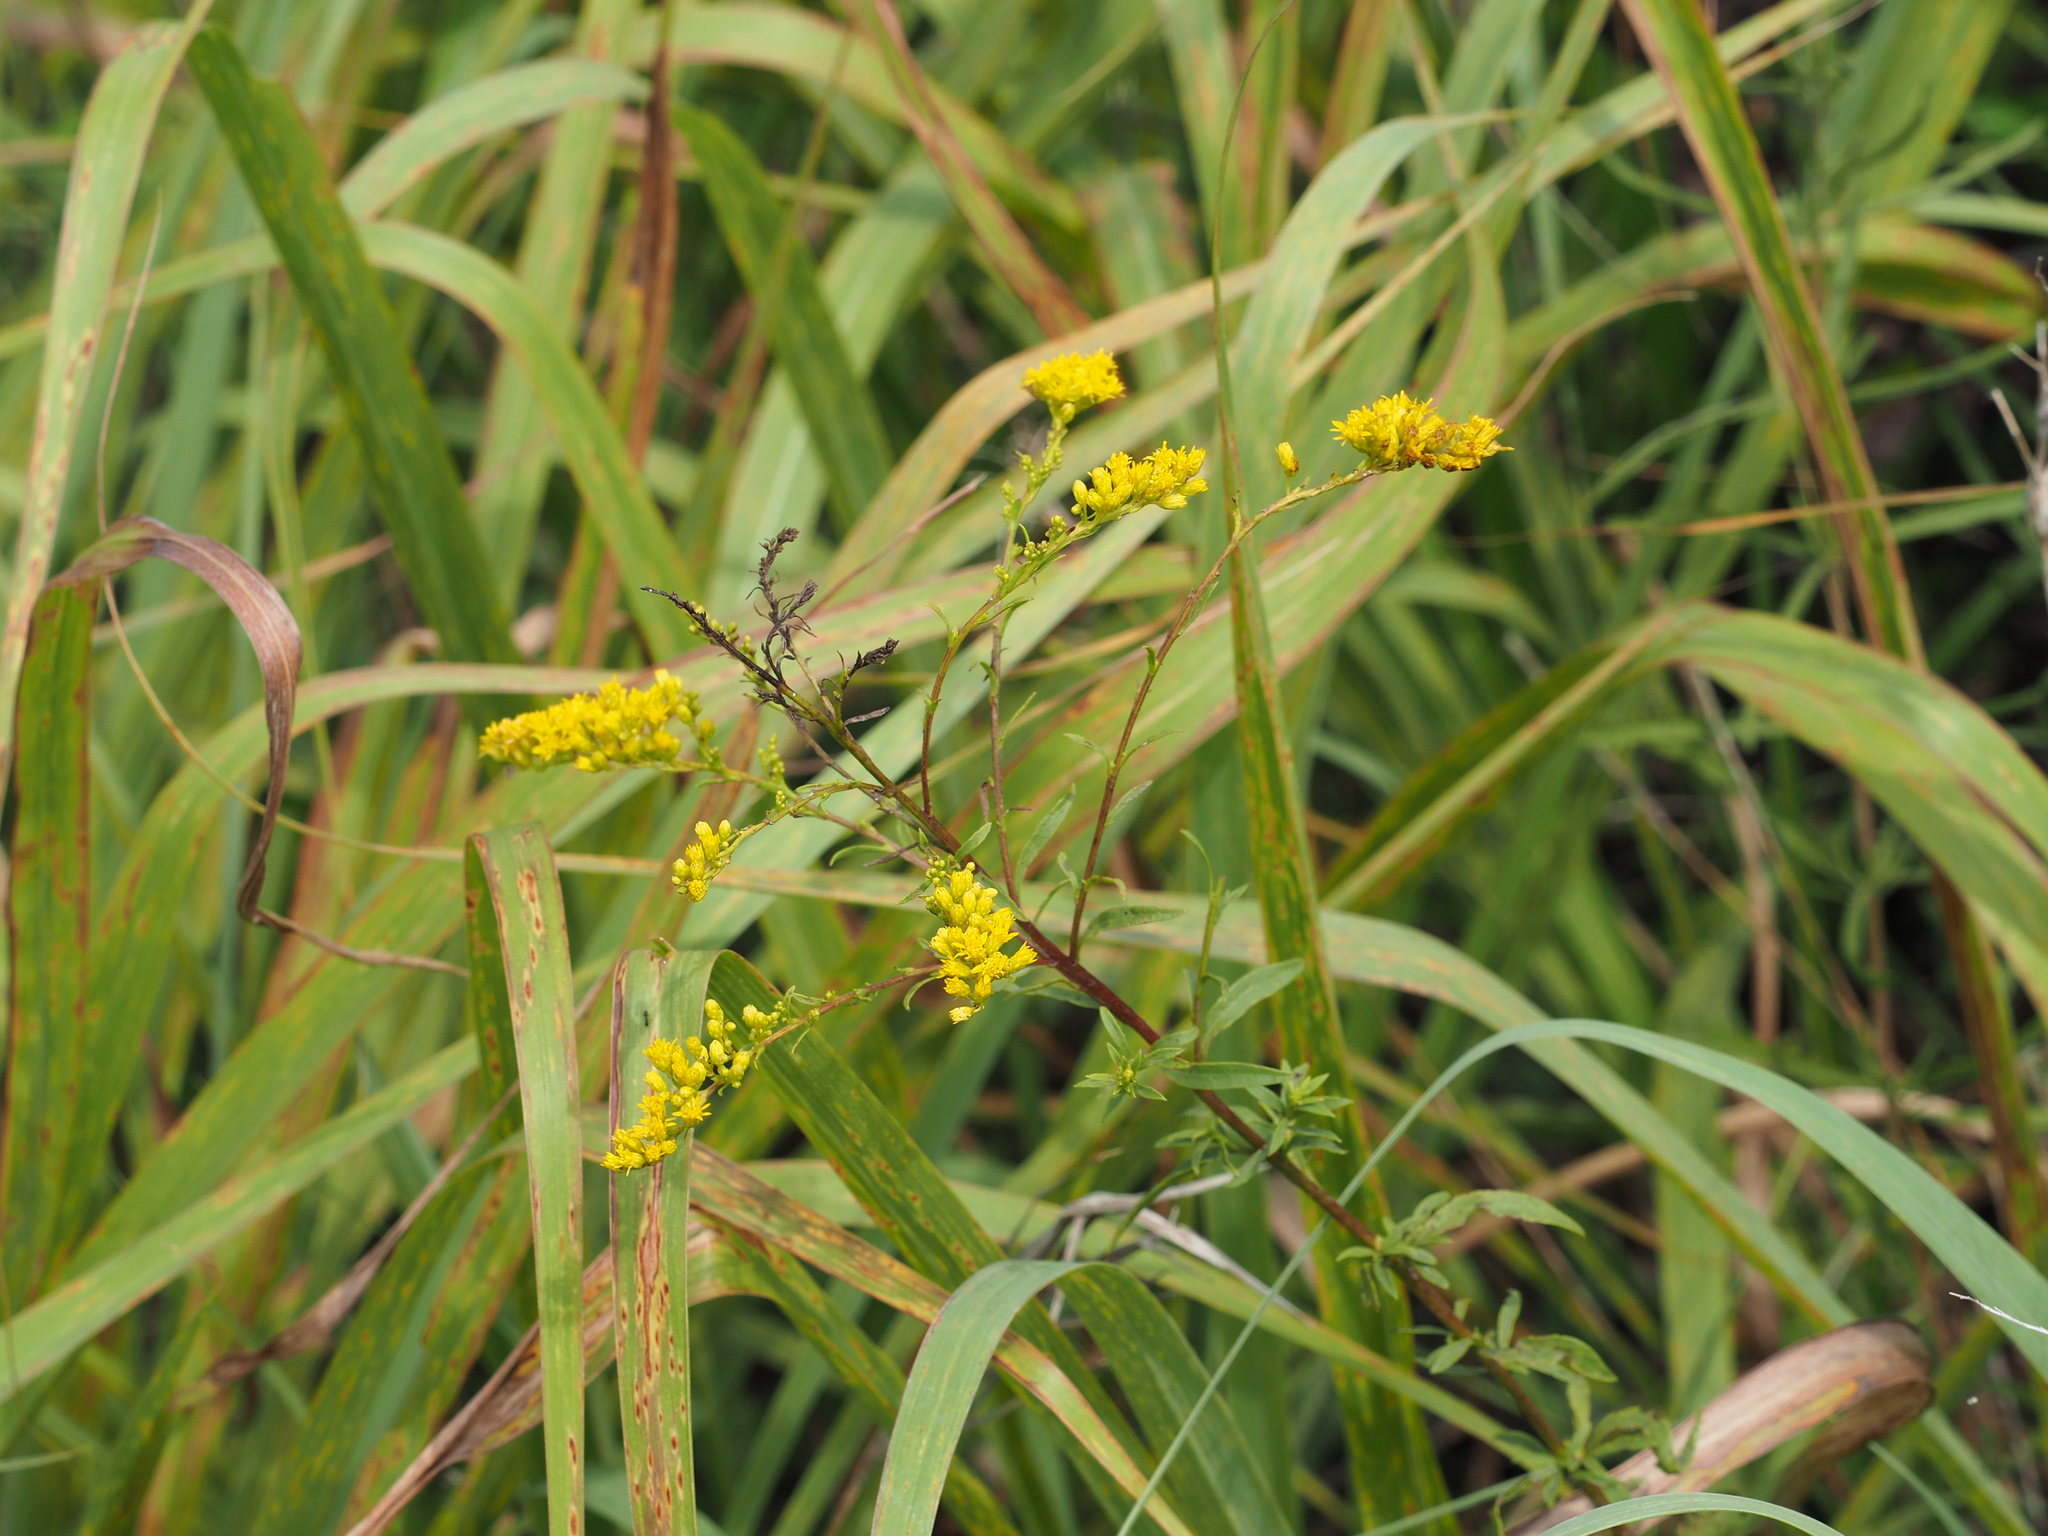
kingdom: Plantae
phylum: Tracheophyta
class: Magnoliopsida
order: Asterales
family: Asteraceae
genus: Solidago
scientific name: Solidago juncea
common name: Early goldenrod
